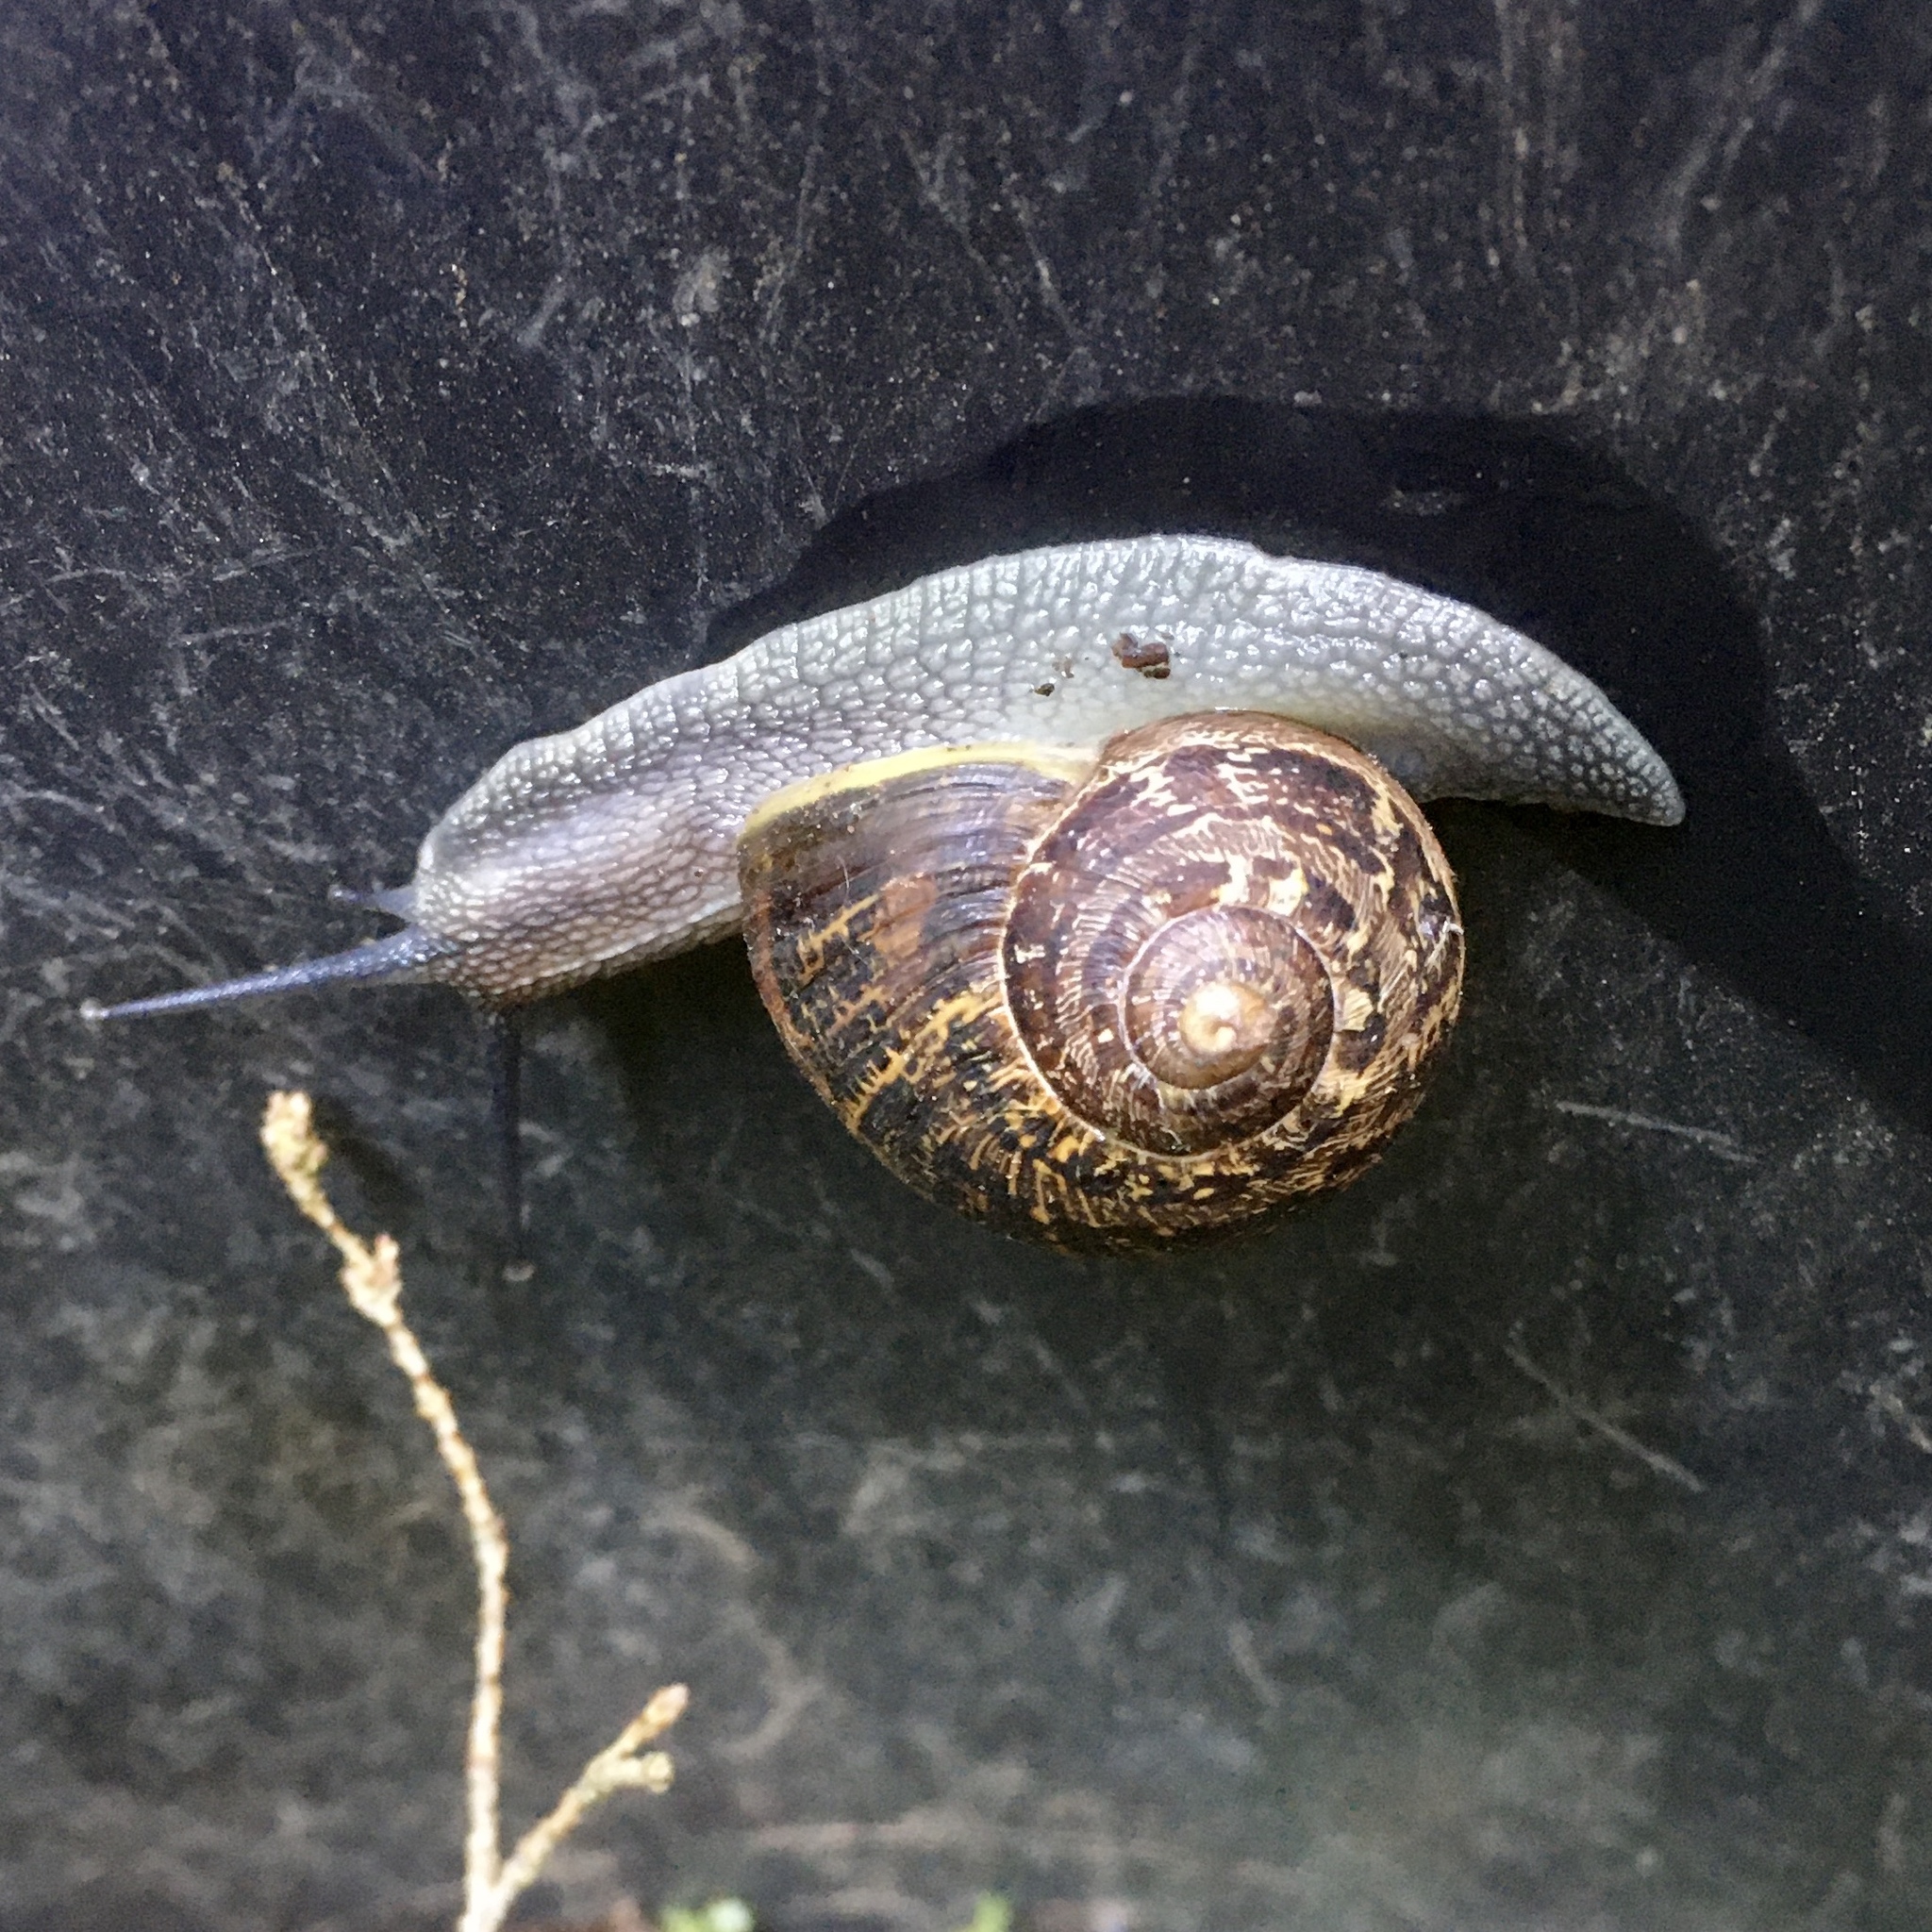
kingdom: Animalia
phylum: Mollusca
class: Gastropoda
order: Stylommatophora
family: Helicidae
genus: Cornu
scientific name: Cornu aspersum
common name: Brown garden snail
